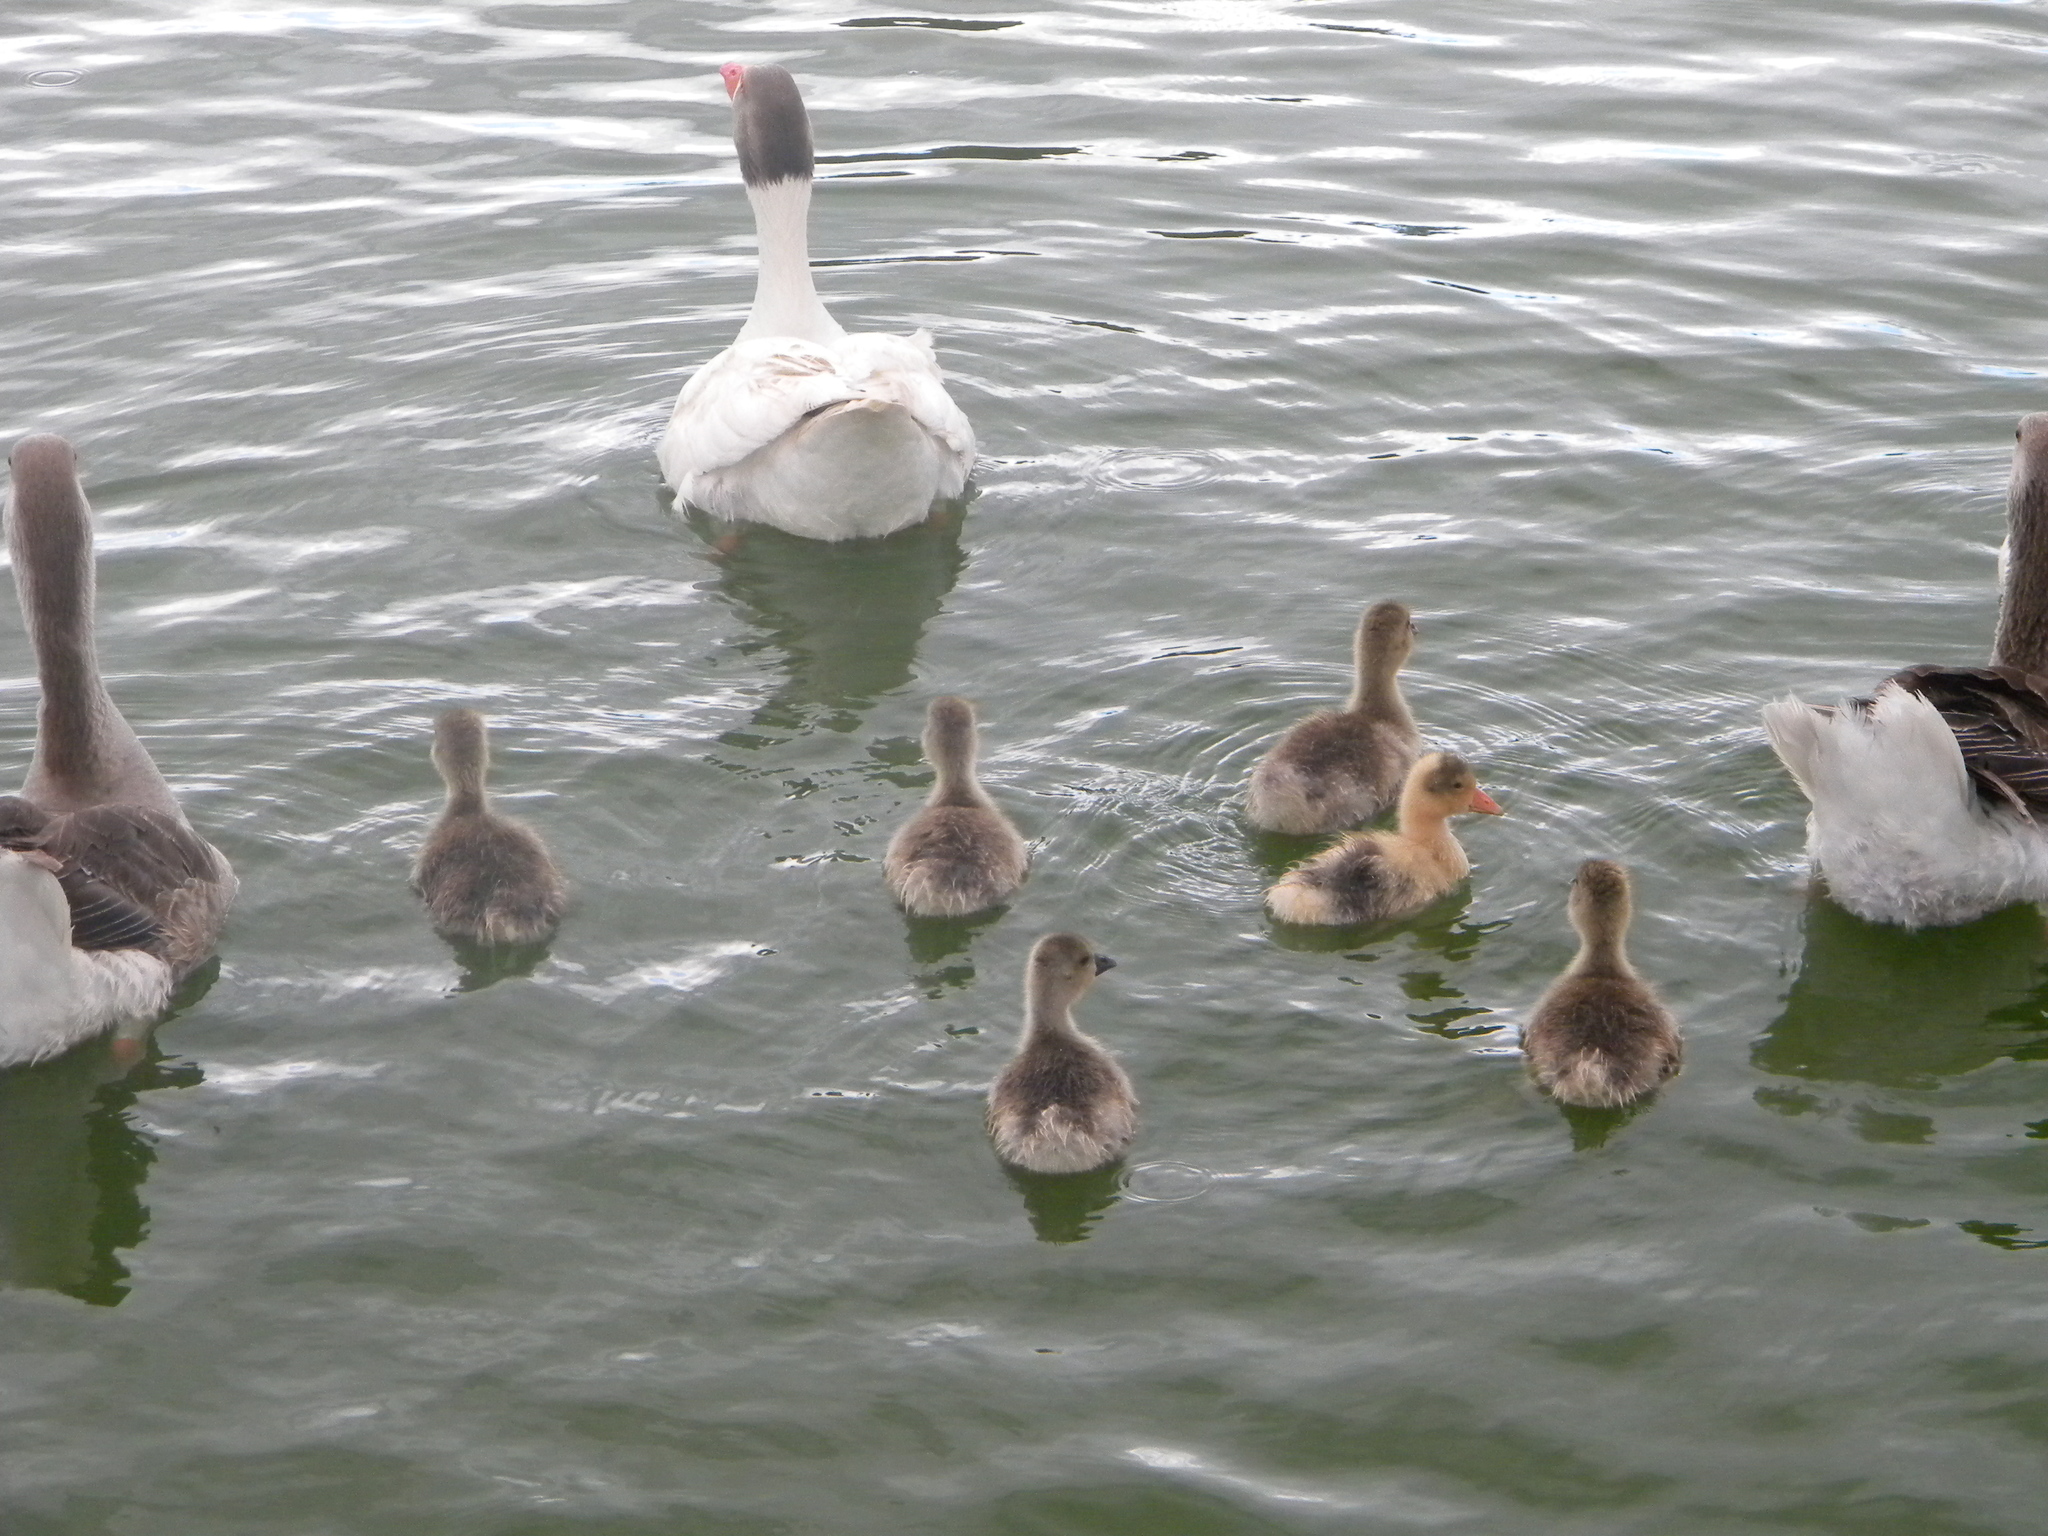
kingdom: Animalia
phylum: Chordata
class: Aves
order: Anseriformes
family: Anatidae
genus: Anser
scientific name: Anser anser
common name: Greylag goose
